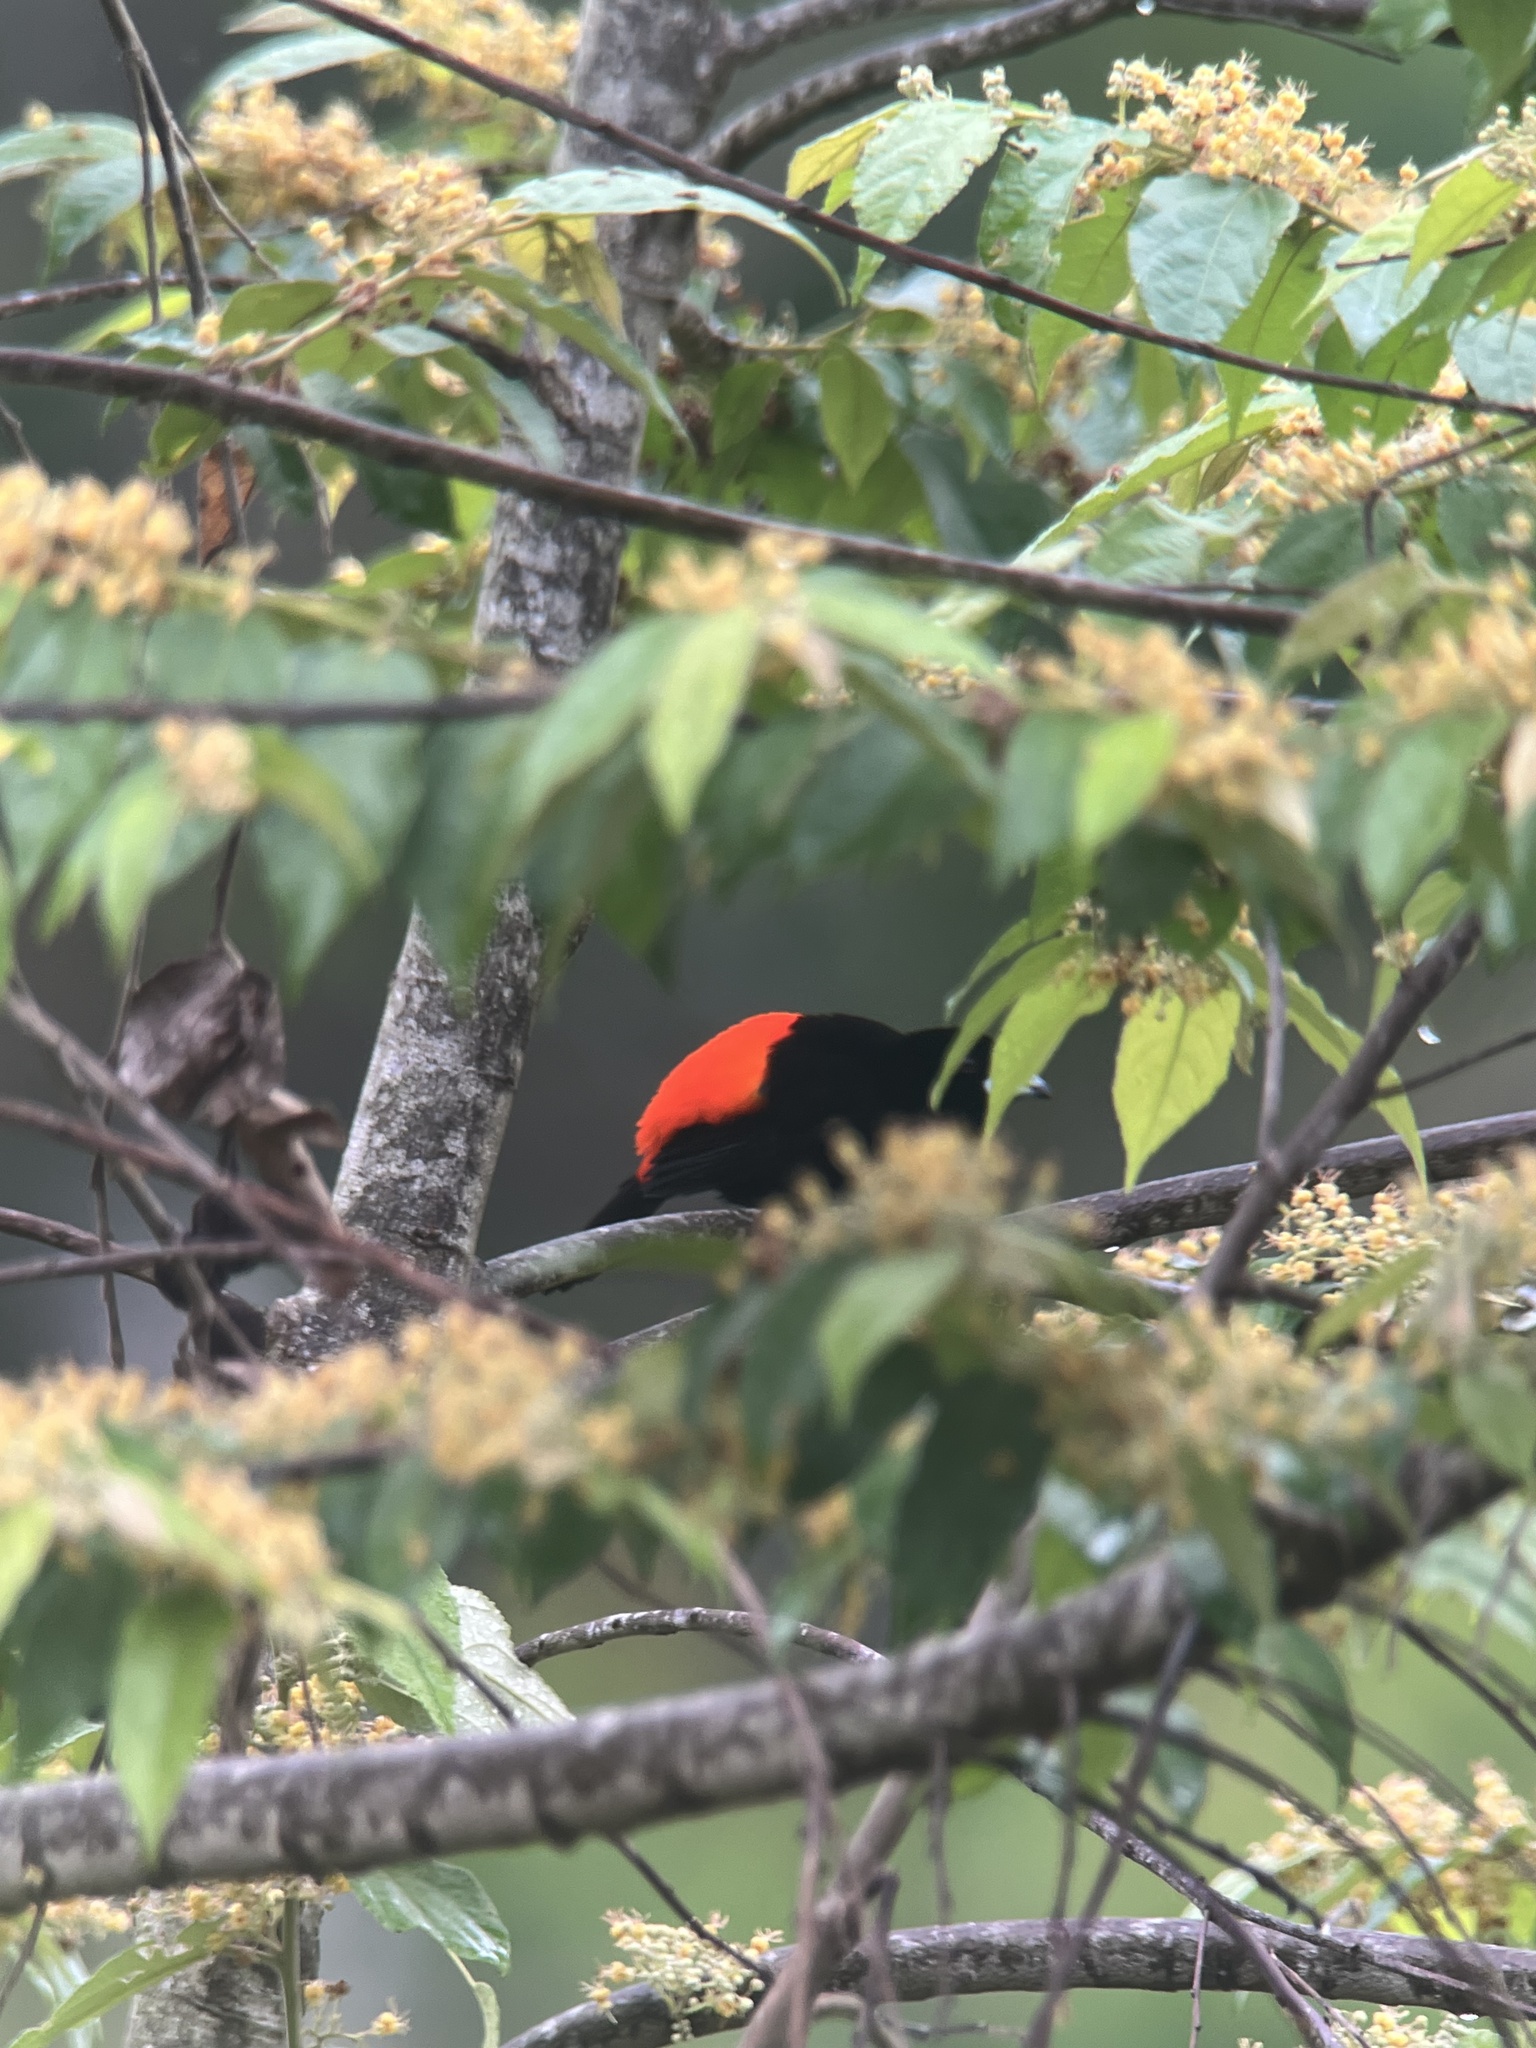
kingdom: Animalia
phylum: Chordata
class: Aves
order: Passeriformes
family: Thraupidae
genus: Ramphocelus
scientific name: Ramphocelus passerinii
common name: Passerini's tanager
